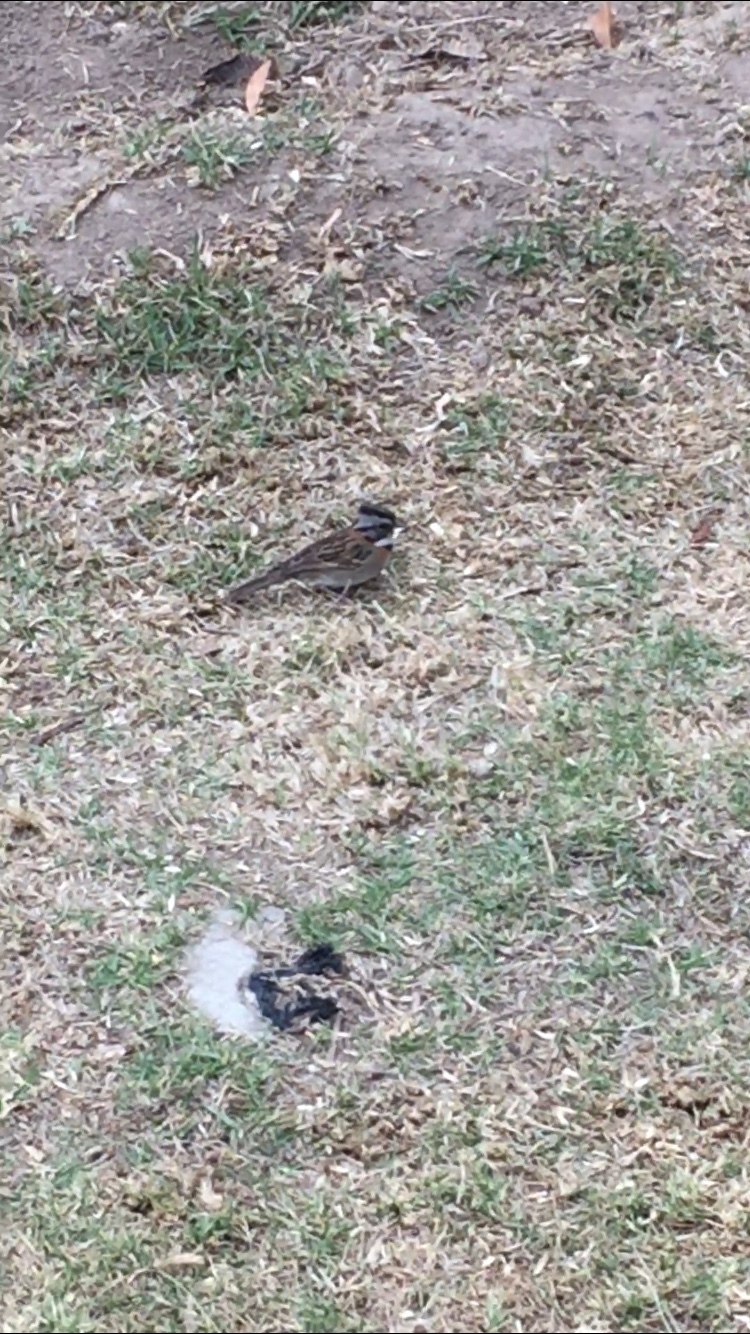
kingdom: Animalia
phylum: Chordata
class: Aves
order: Passeriformes
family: Passerellidae
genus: Zonotrichia
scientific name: Zonotrichia capensis
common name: Rufous-collared sparrow
